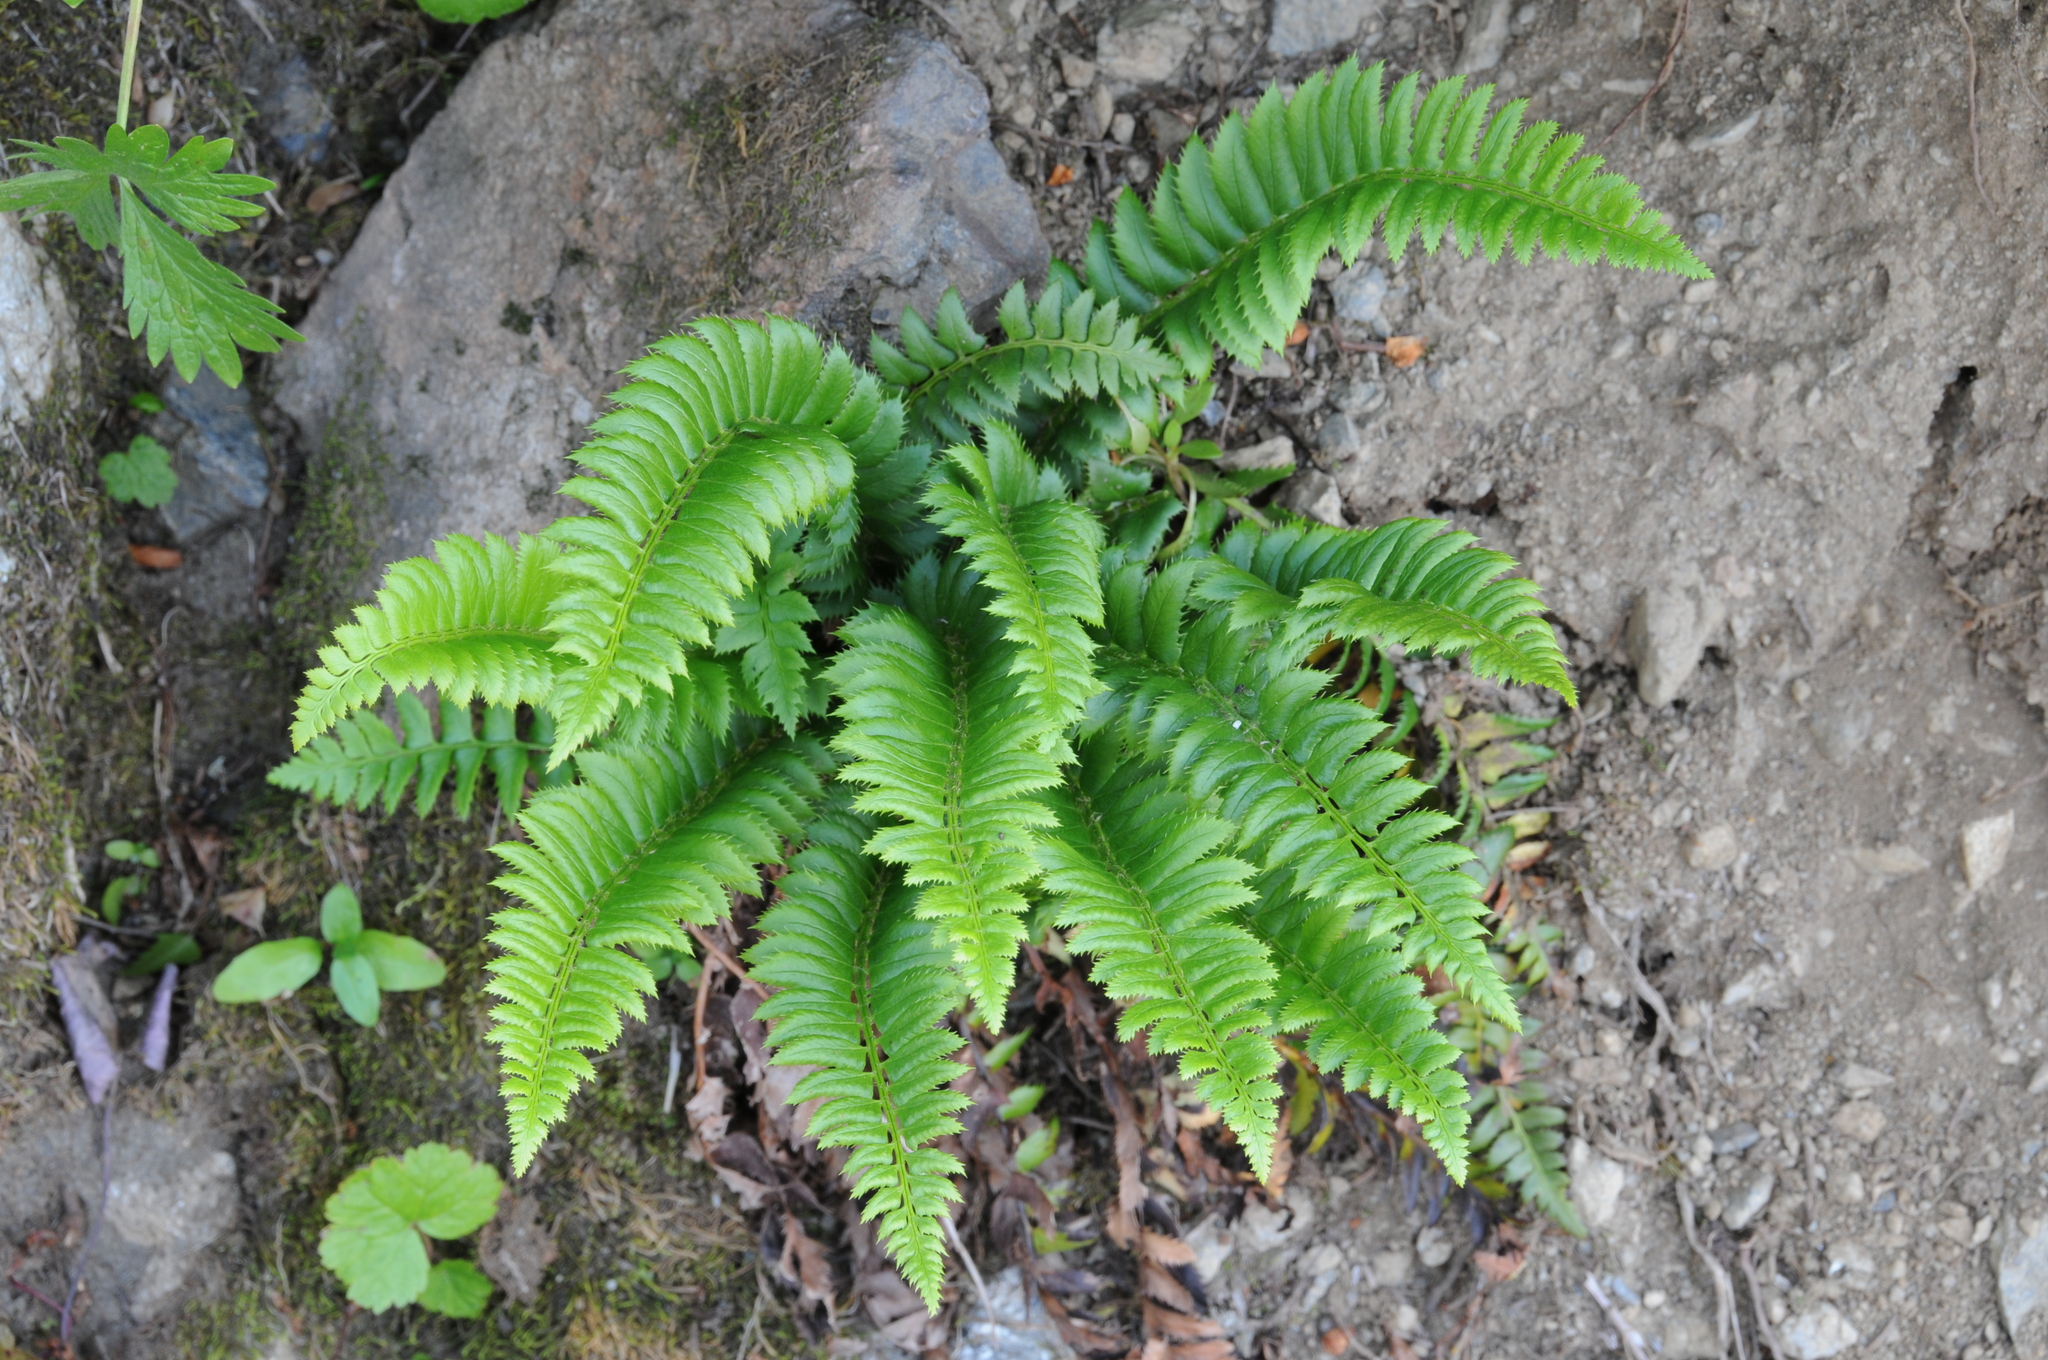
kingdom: Plantae
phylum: Tracheophyta
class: Polypodiopsida
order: Polypodiales
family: Dryopteridaceae
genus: Polystichum
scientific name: Polystichum lonchitis
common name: Holly fern
